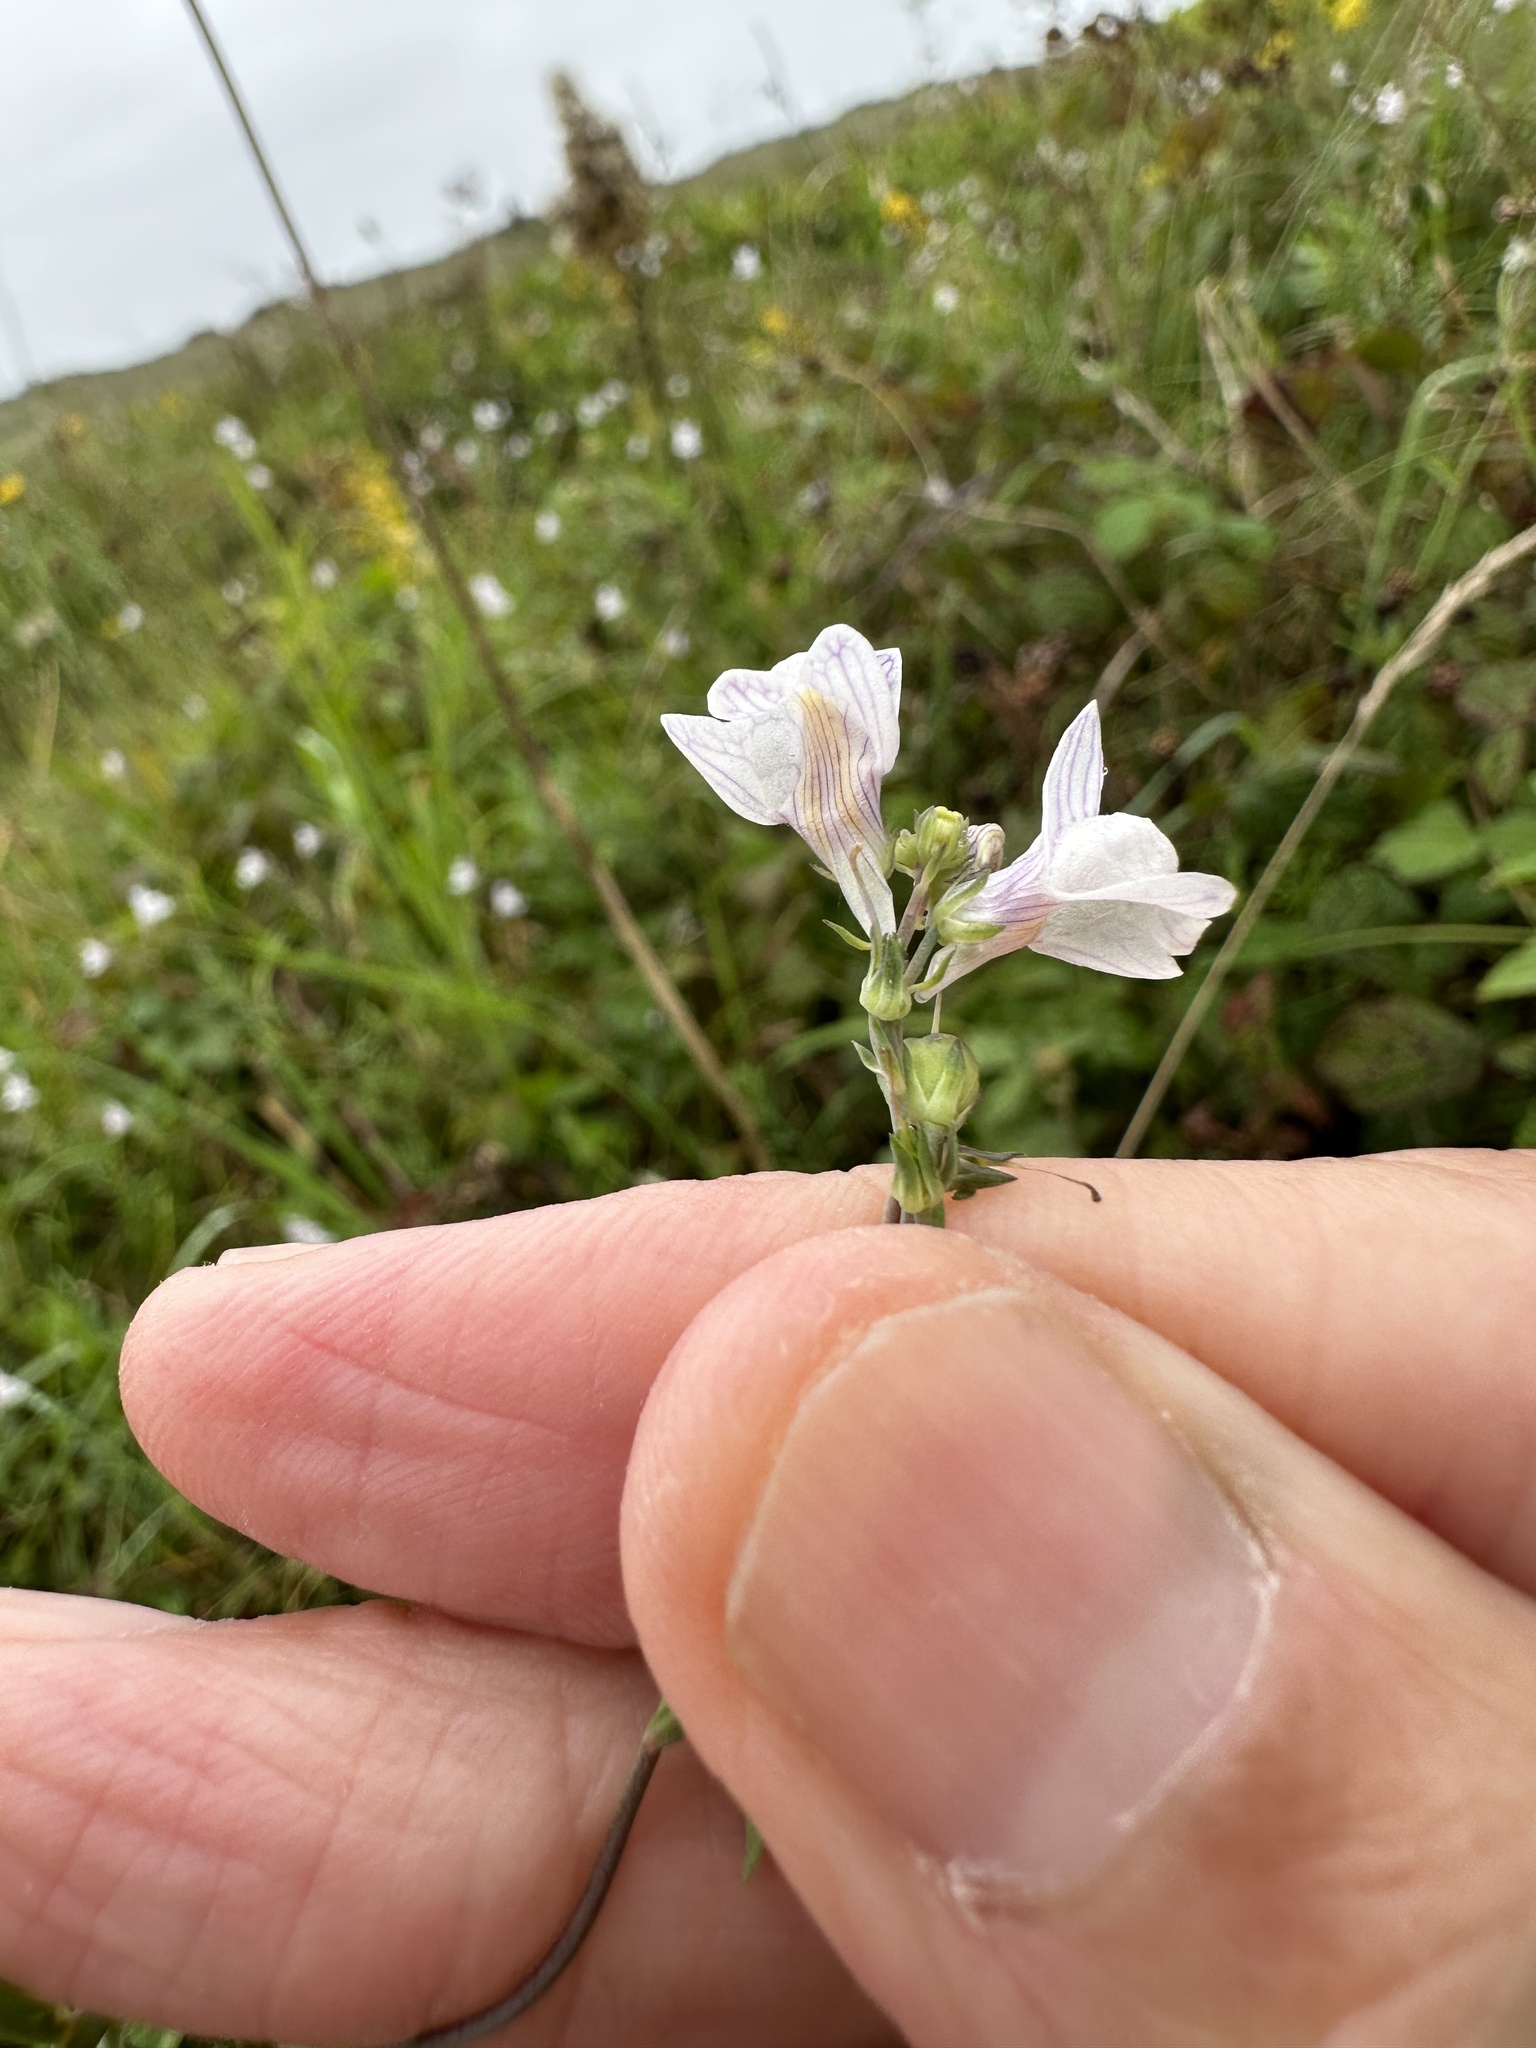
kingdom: Plantae
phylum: Tracheophyta
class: Magnoliopsida
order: Lamiales
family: Plantaginaceae
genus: Linaria
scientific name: Linaria repens
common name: Pale toadflax
